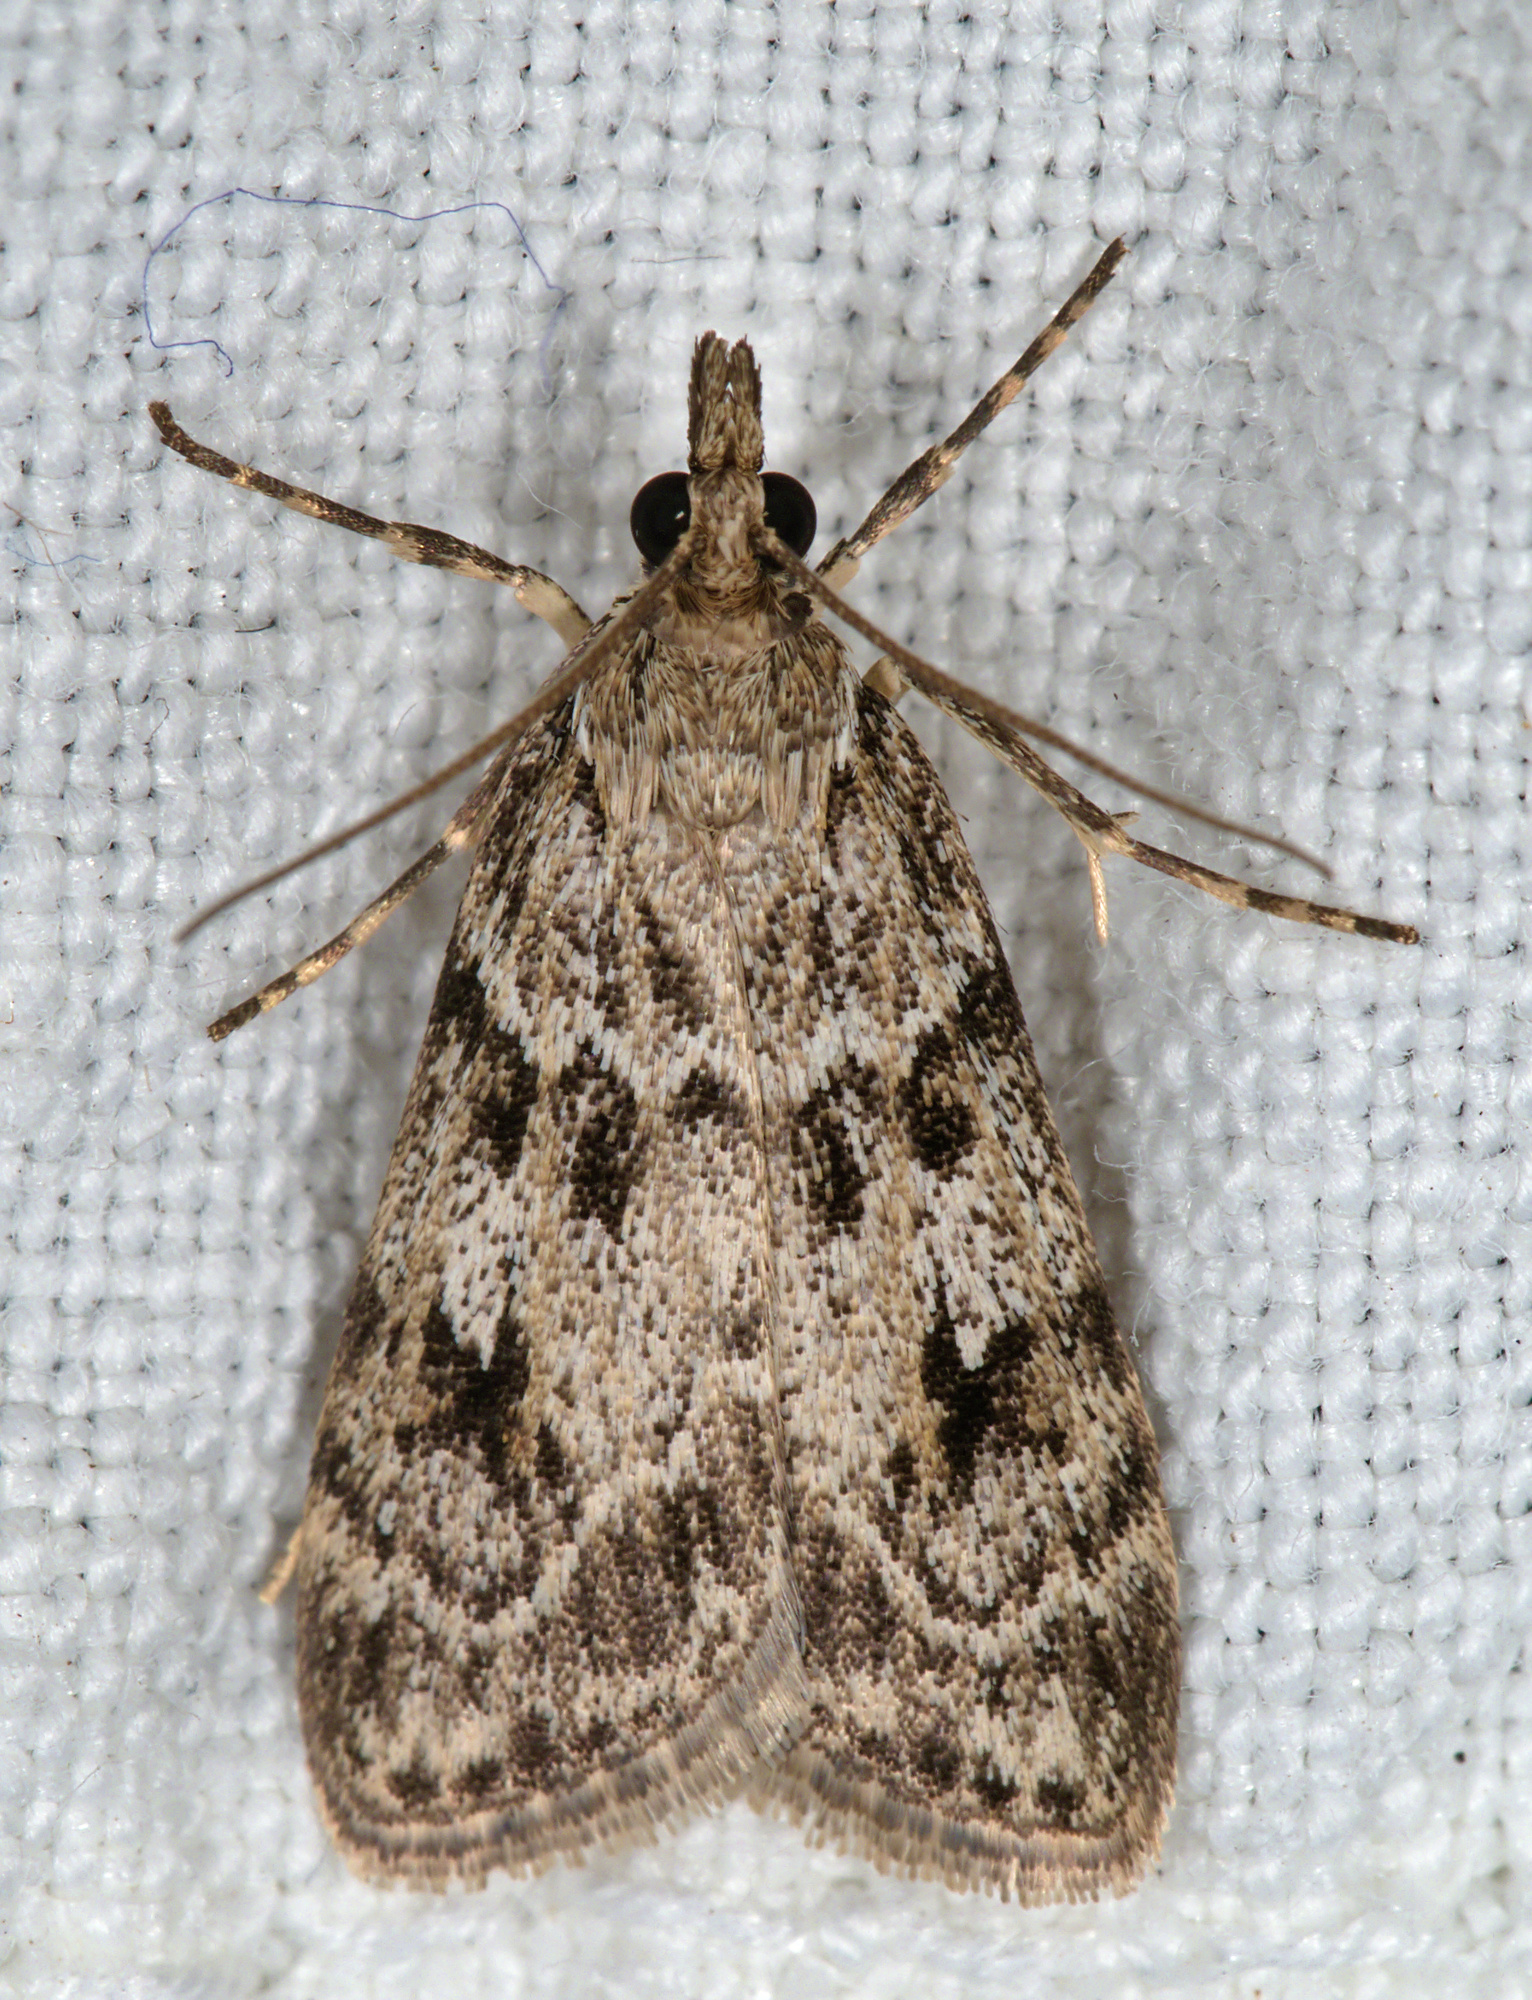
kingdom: Animalia
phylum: Arthropoda
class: Insecta
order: Lepidoptera
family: Crambidae
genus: Scoparia
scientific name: Scoparia ambigualis
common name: Common grey
